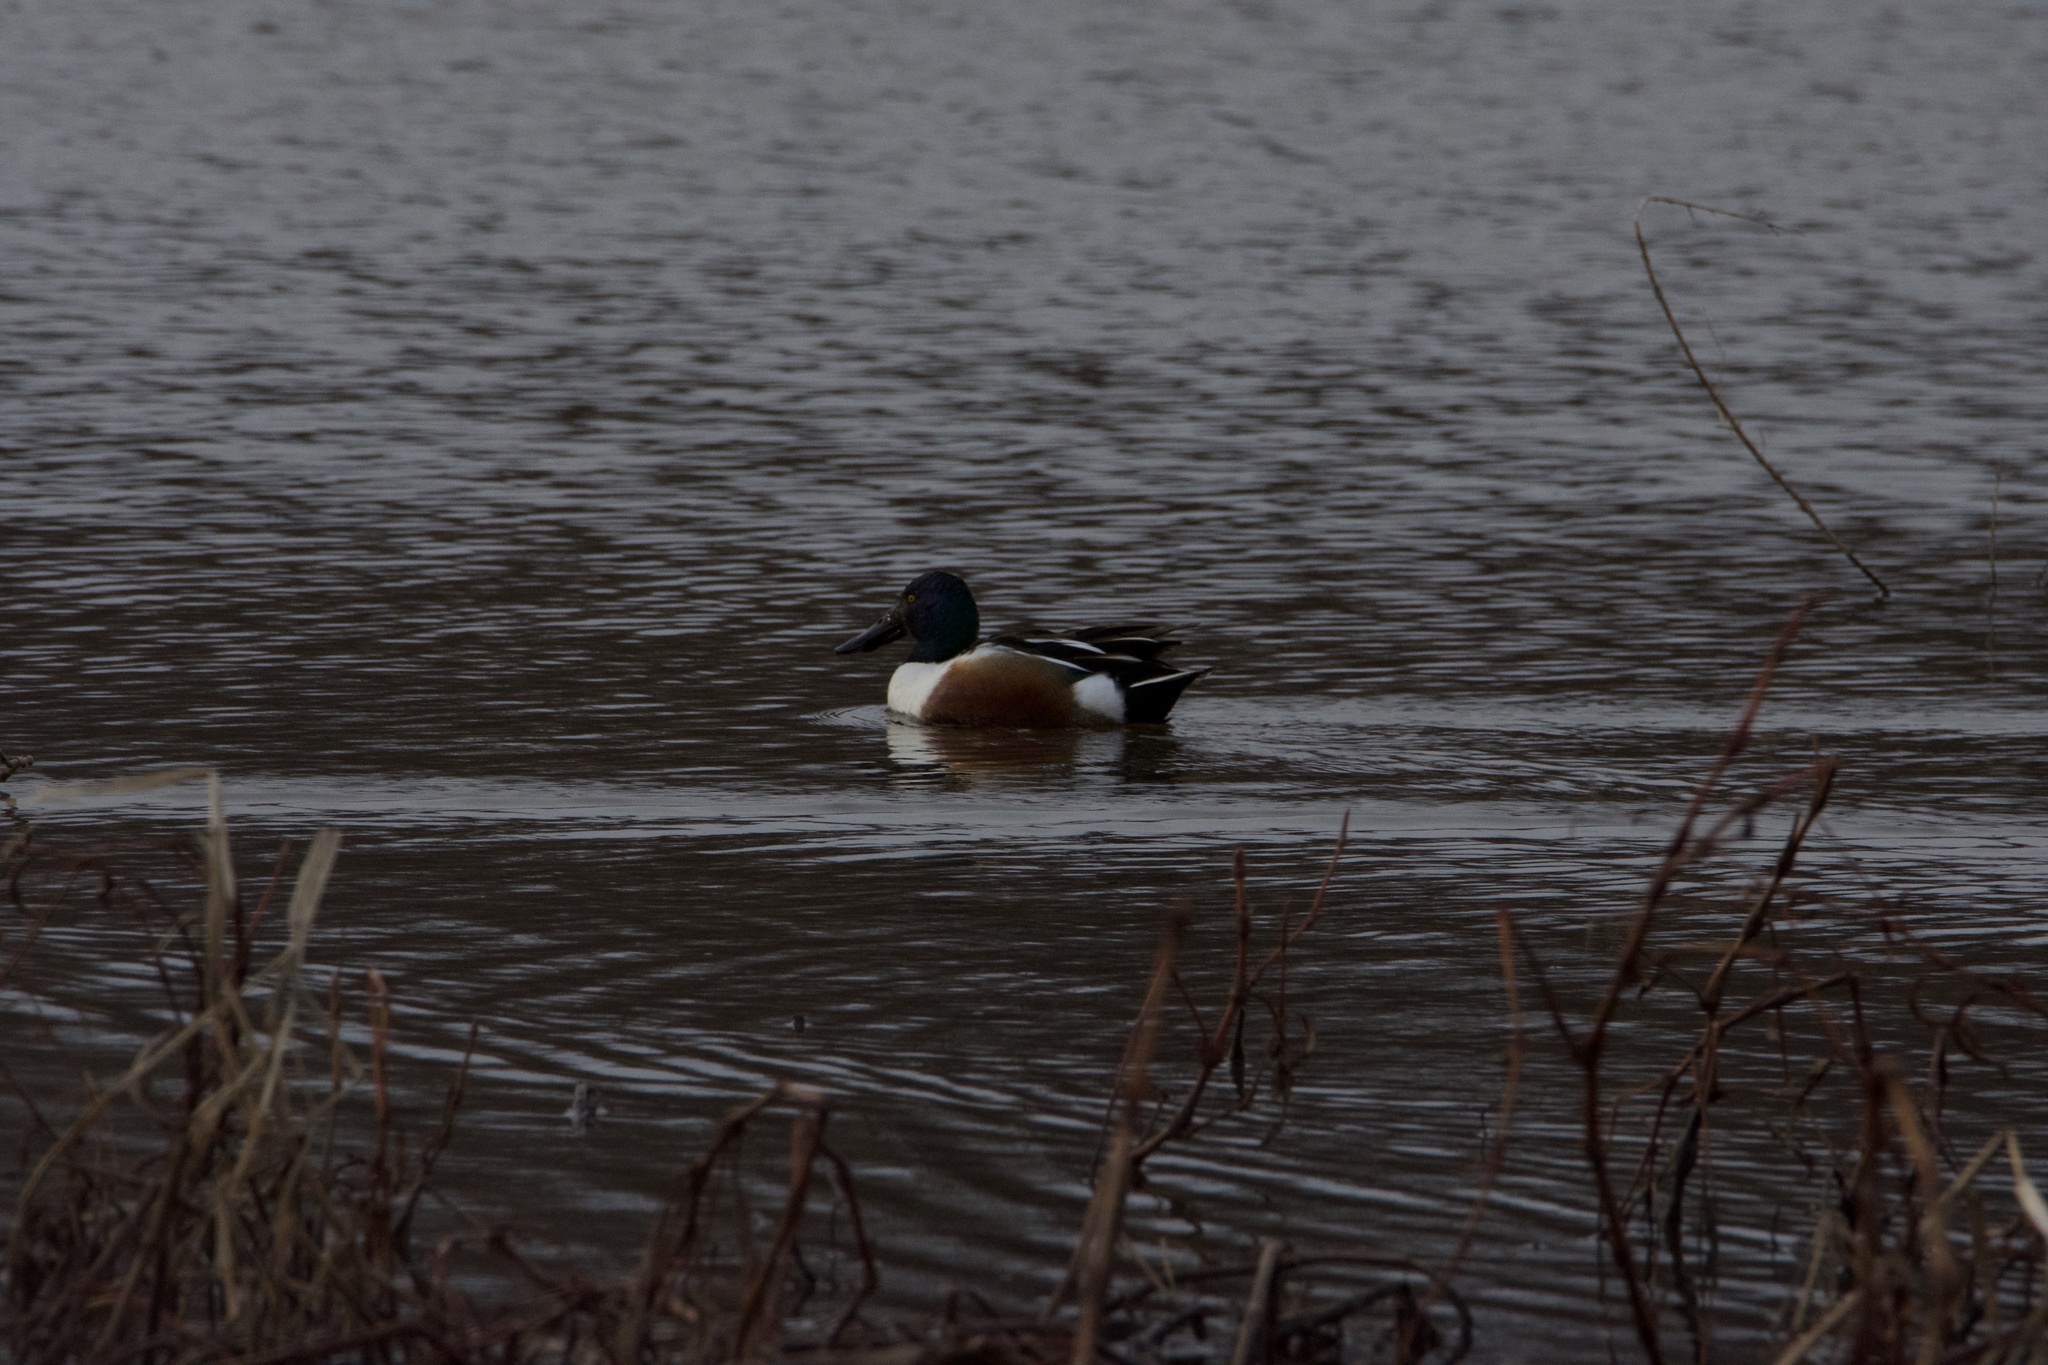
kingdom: Animalia
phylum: Chordata
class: Aves
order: Anseriformes
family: Anatidae
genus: Spatula
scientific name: Spatula clypeata
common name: Northern shoveler
